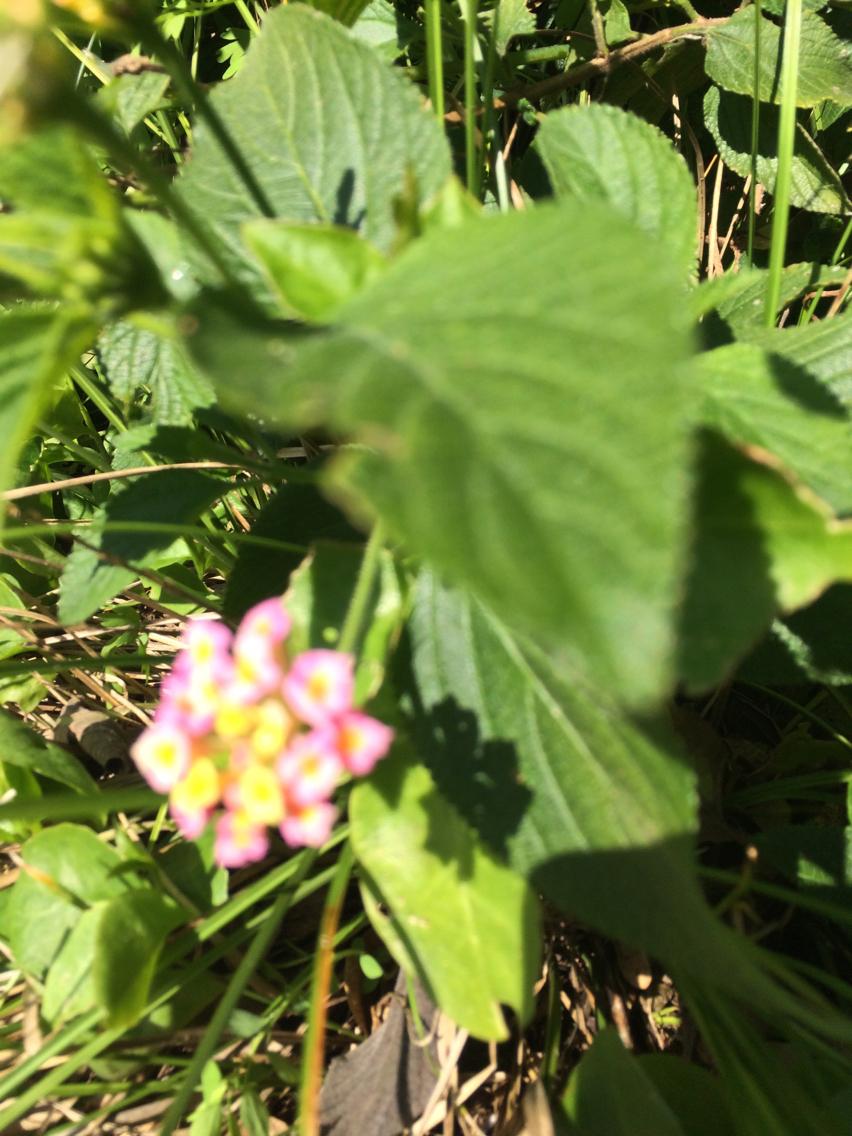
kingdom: Plantae
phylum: Tracheophyta
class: Magnoliopsida
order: Lamiales
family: Verbenaceae
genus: Lantana
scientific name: Lantana camara
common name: Lantana
